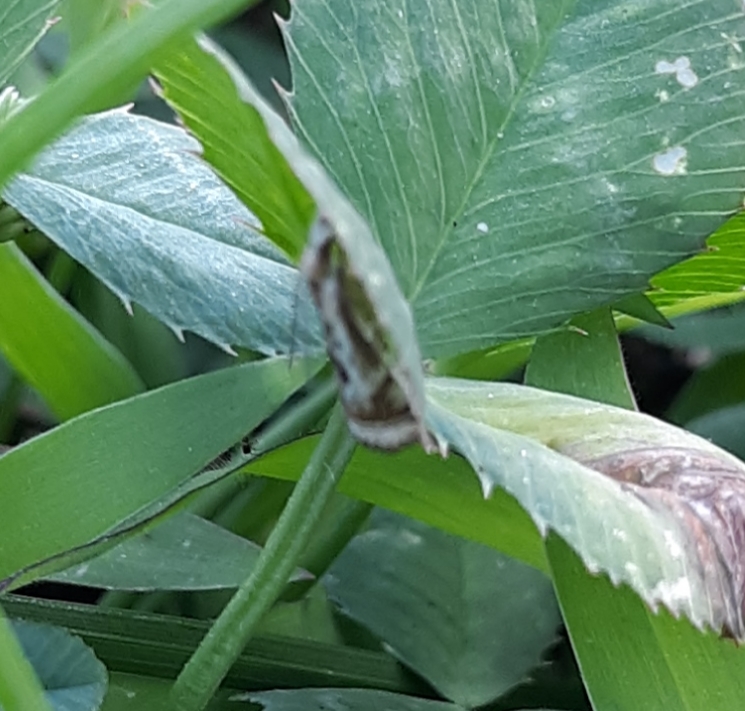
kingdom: Animalia
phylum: Arthropoda
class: Insecta
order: Lepidoptera
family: Crambidae
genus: Microcrambus
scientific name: Microcrambus elegans
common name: Elegant grass-veneer
